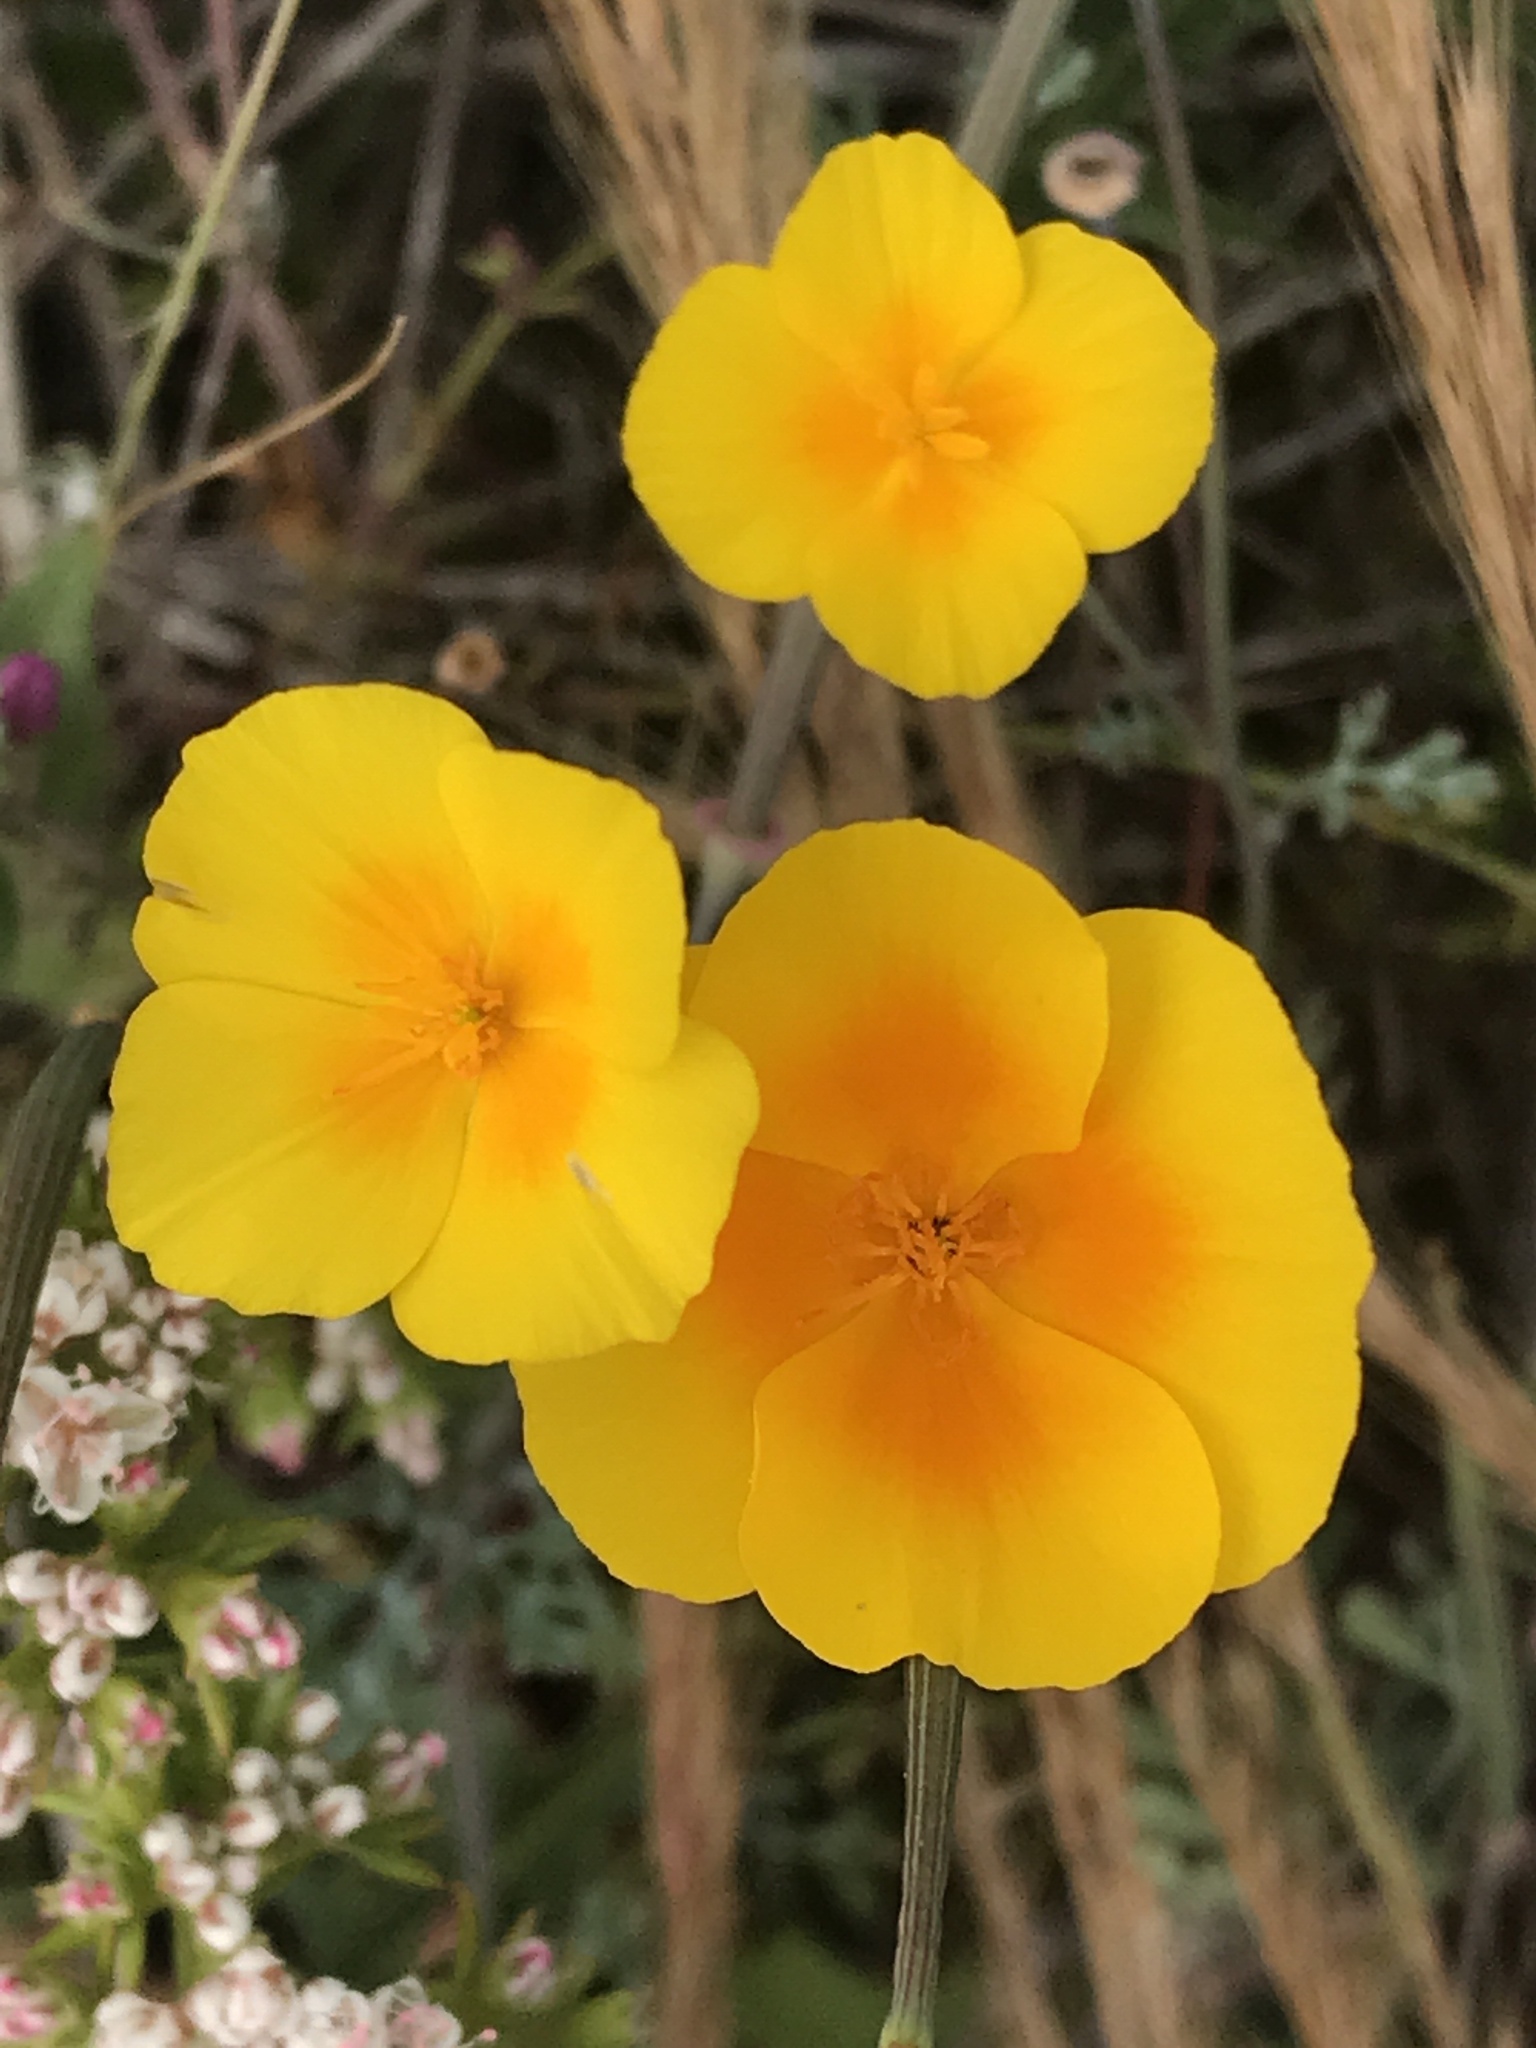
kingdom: Plantae
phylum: Tracheophyta
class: Magnoliopsida
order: Ranunculales
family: Papaveraceae
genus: Eschscholzia
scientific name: Eschscholzia californica
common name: California poppy
